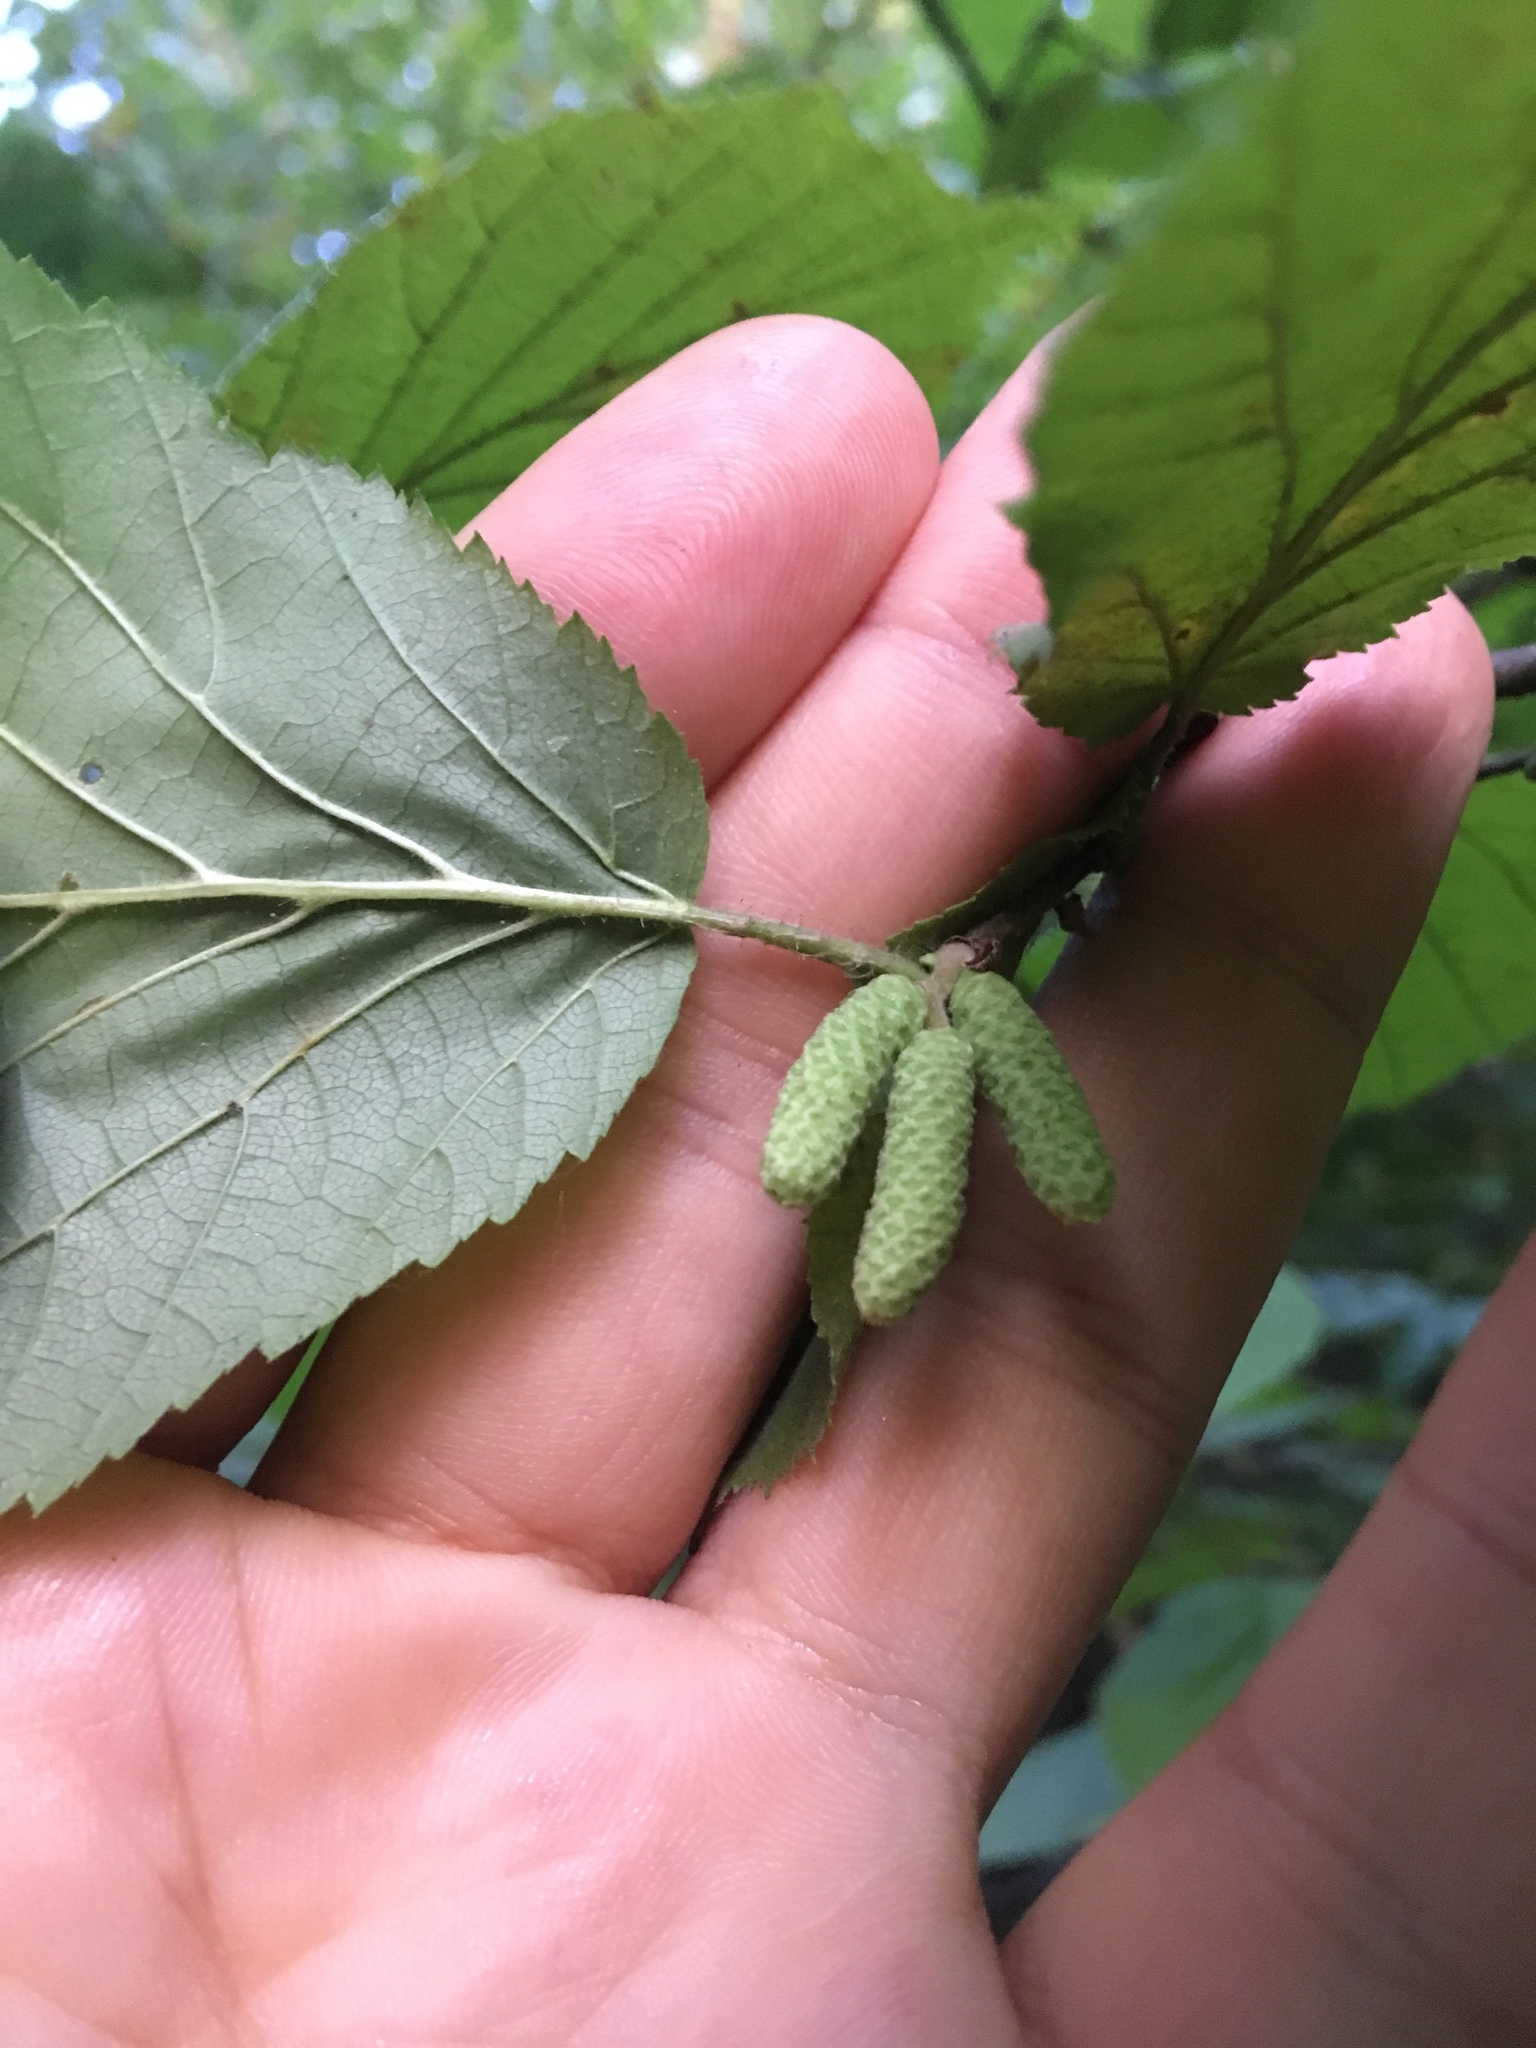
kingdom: Plantae
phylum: Tracheophyta
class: Magnoliopsida
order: Fagales
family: Betulaceae
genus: Corylus
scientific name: Corylus avellana
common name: European hazel
